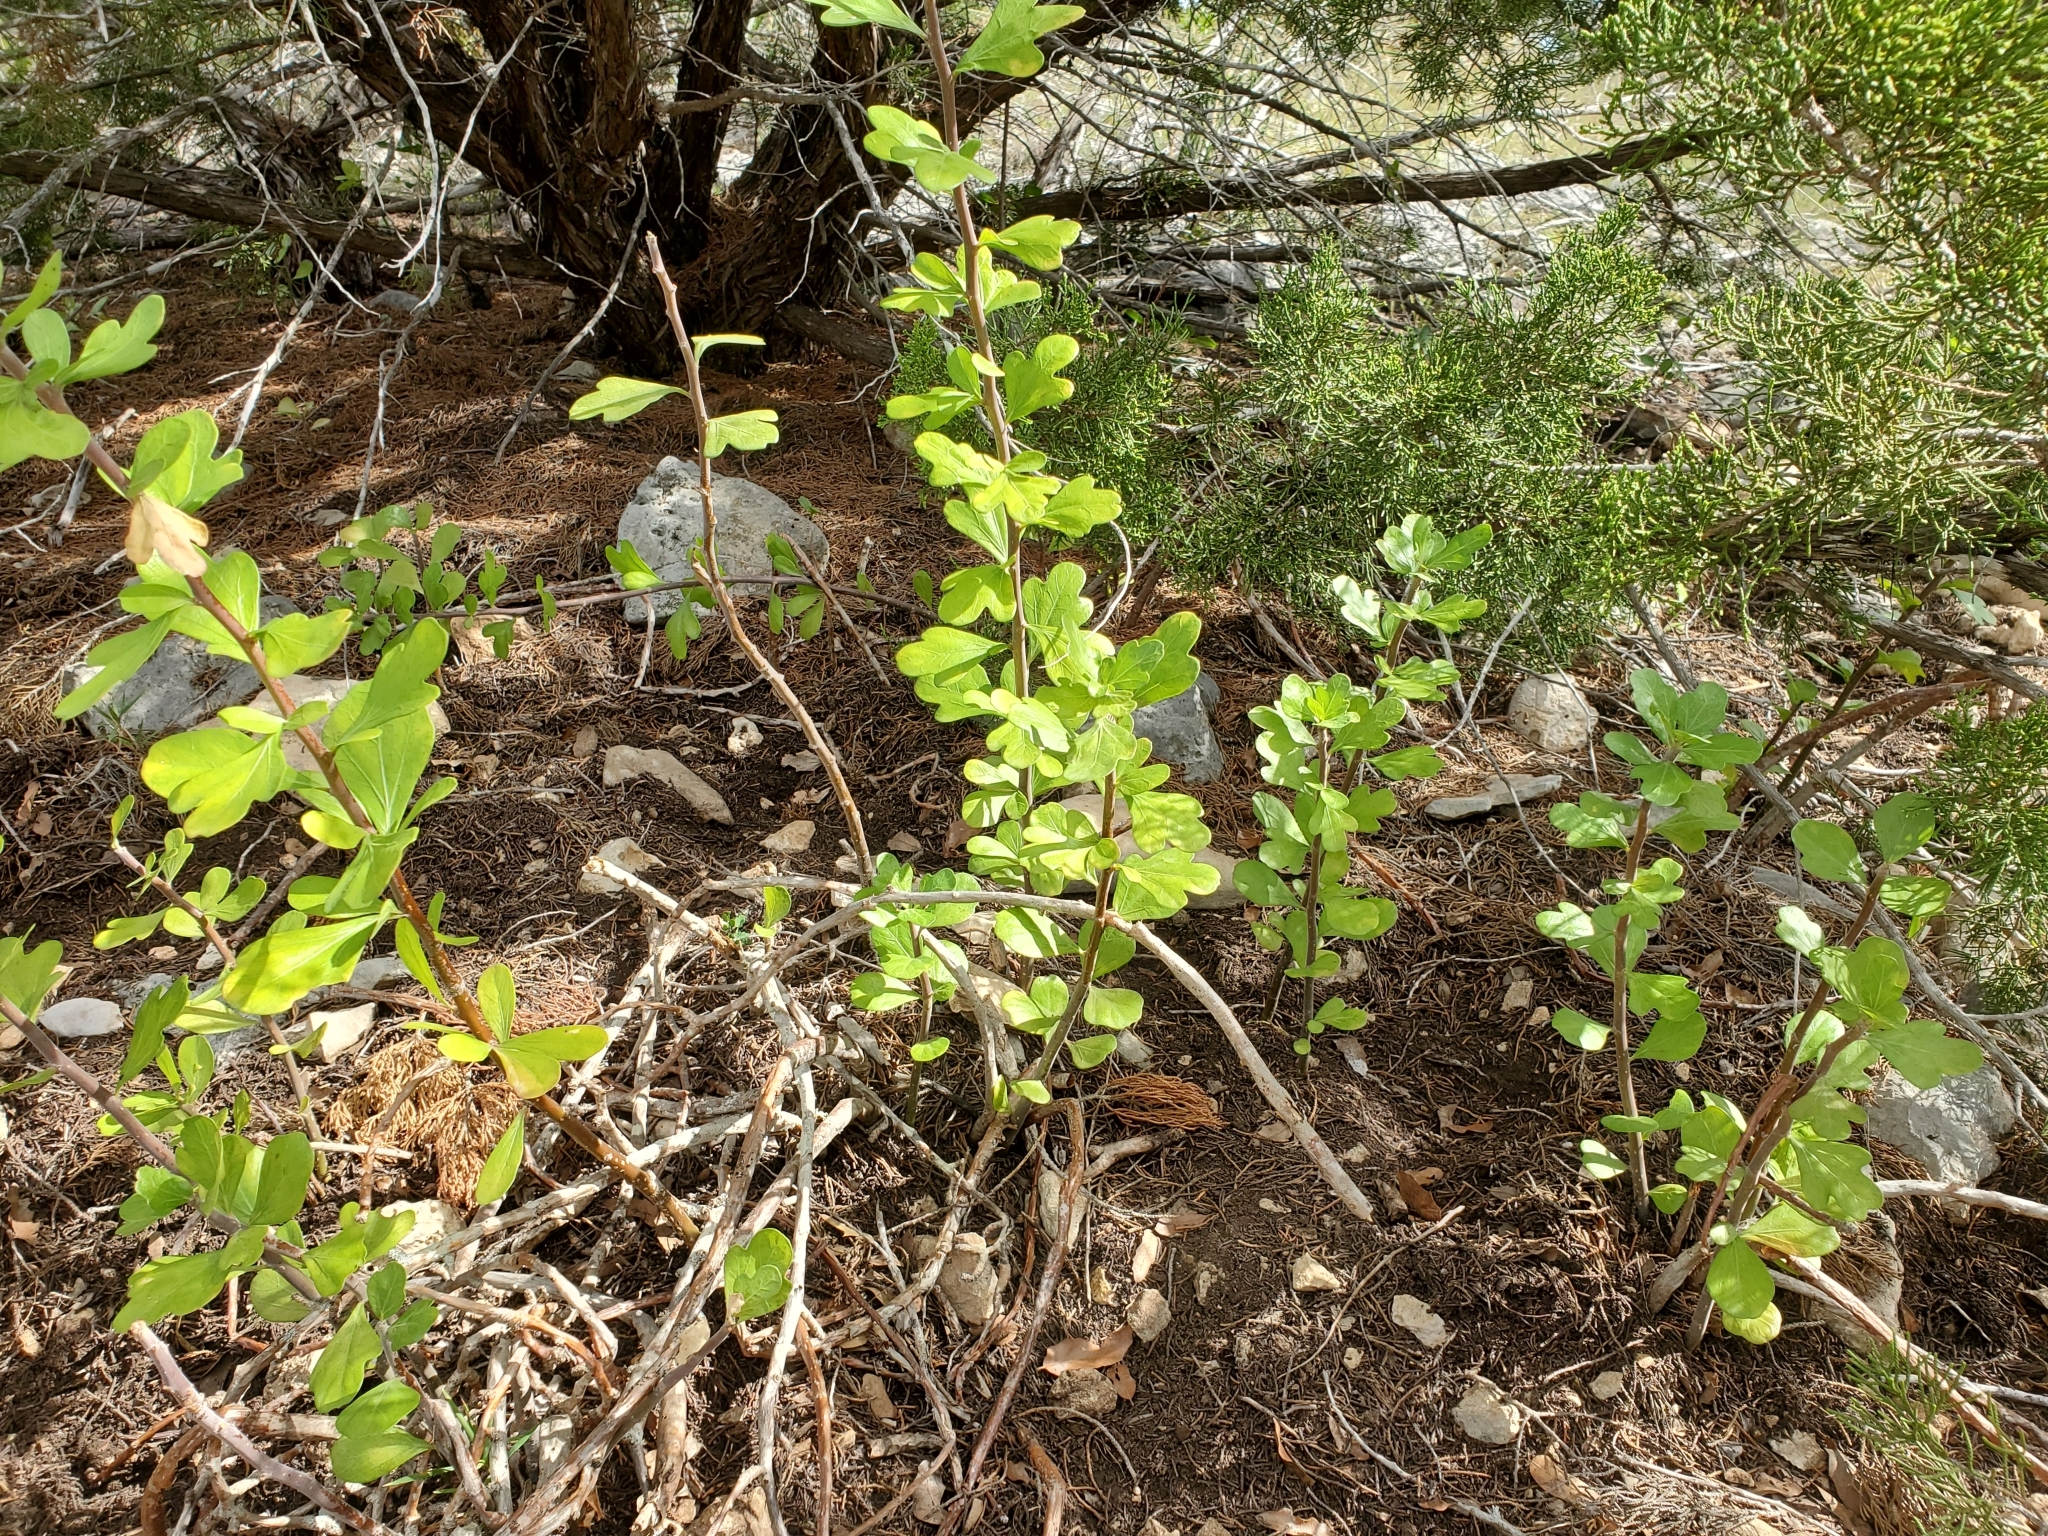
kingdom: Plantae
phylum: Tracheophyta
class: Magnoliopsida
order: Malpighiales
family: Euphorbiaceae
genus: Jatropha
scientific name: Jatropha dioica
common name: Leatherstem
